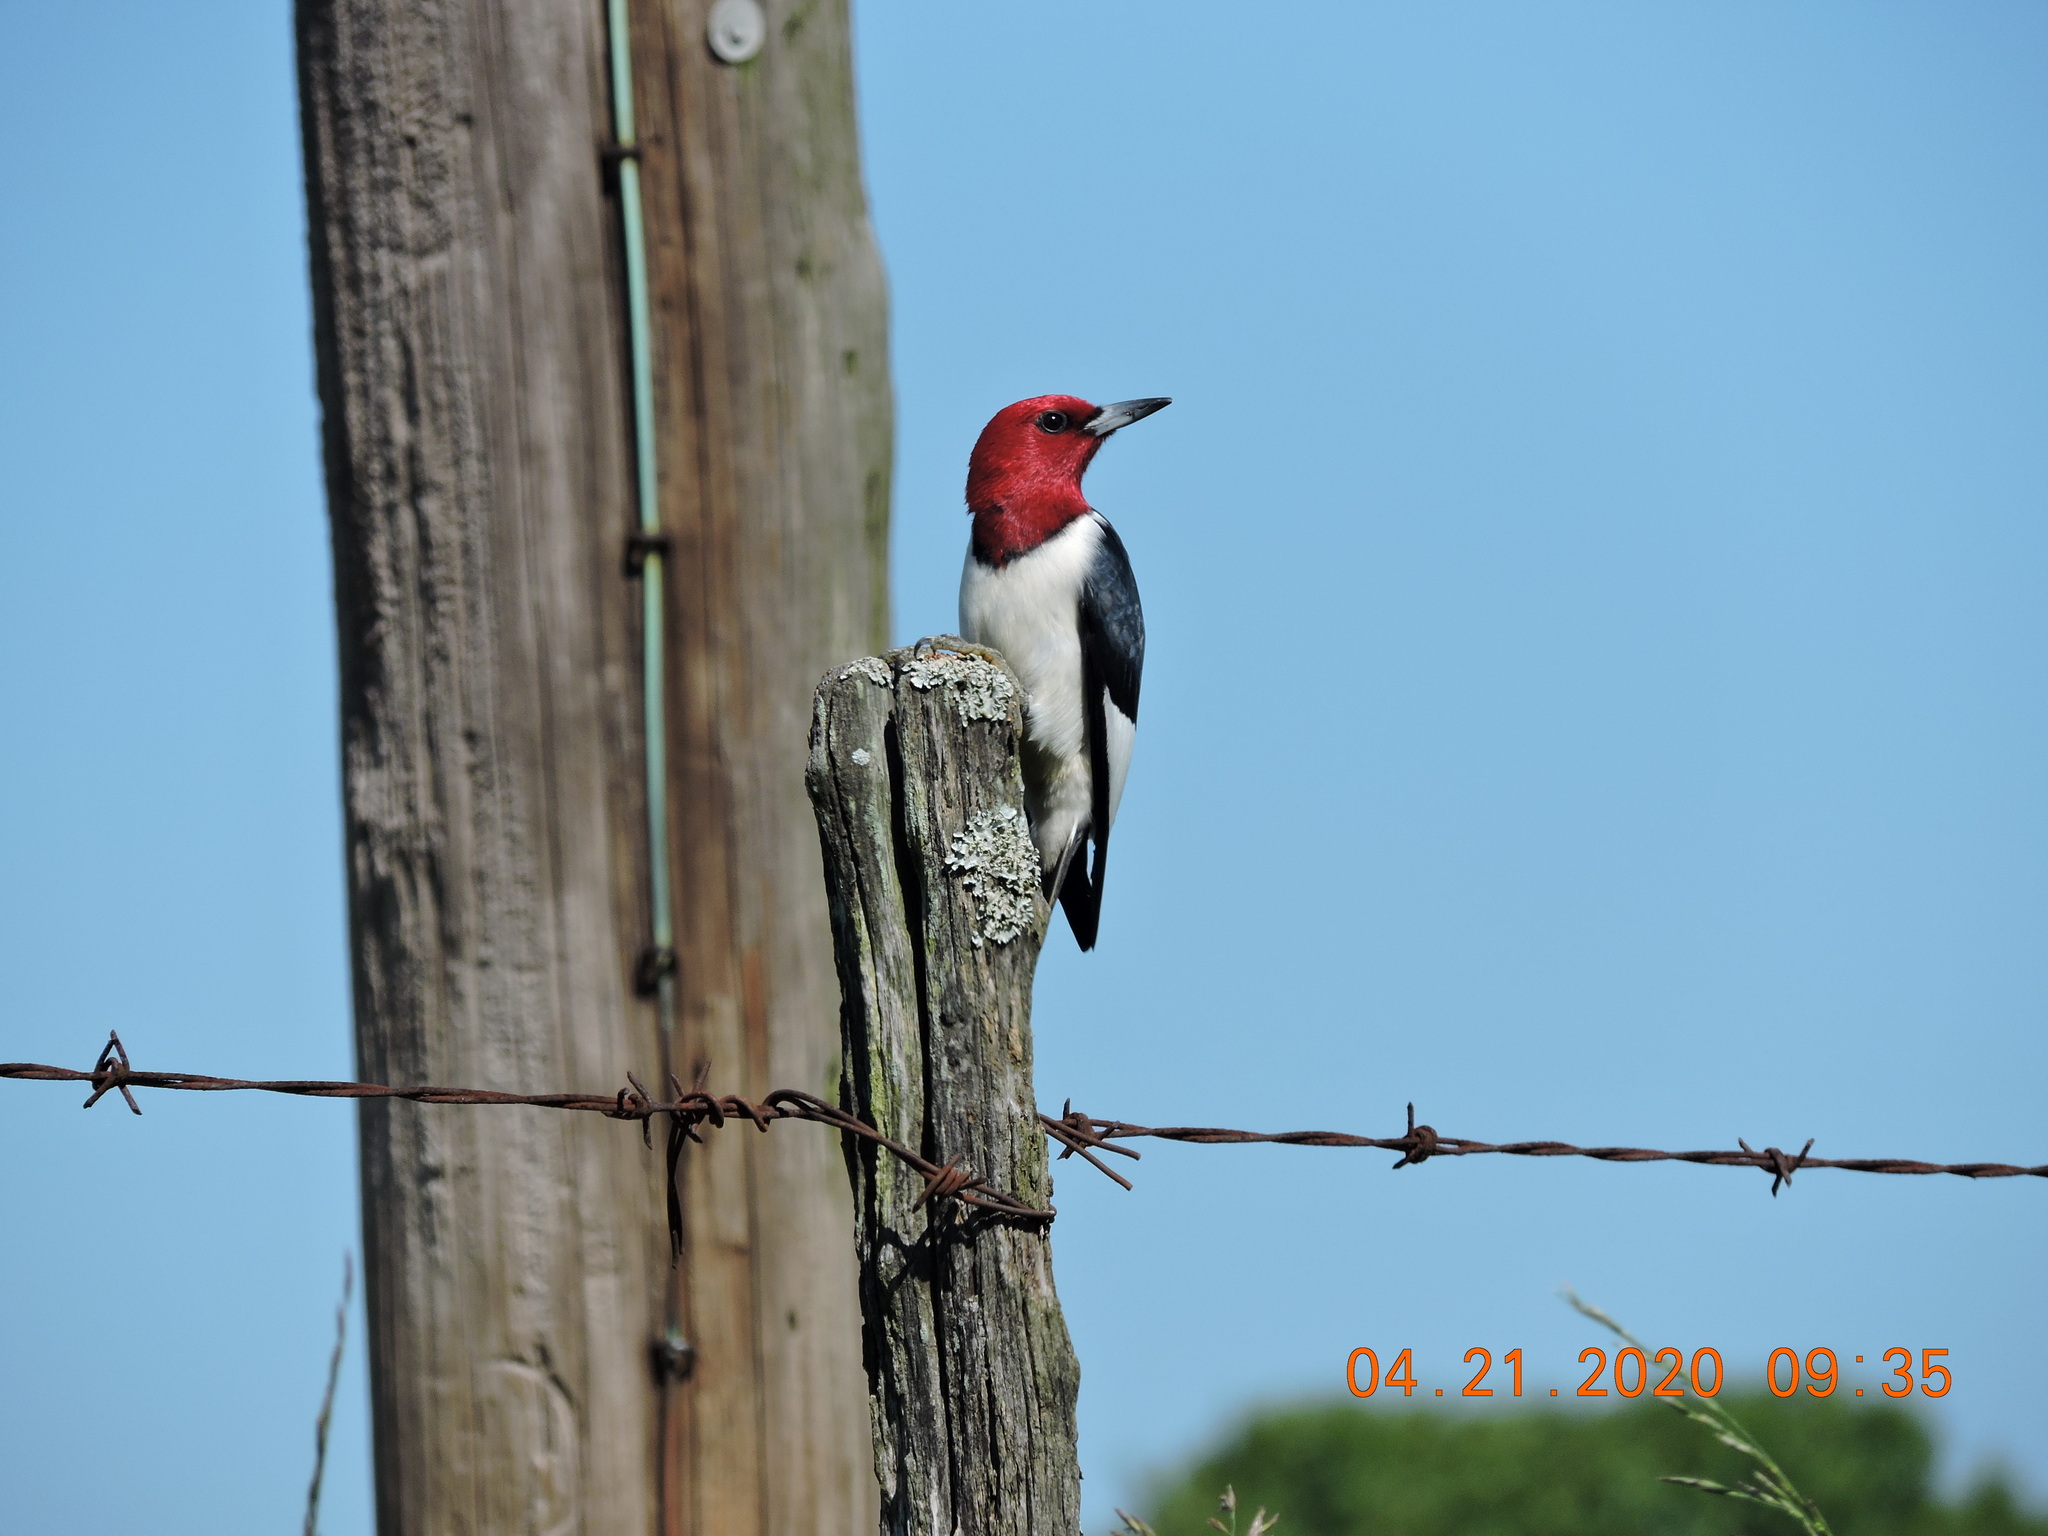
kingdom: Animalia
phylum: Chordata
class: Aves
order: Piciformes
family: Picidae
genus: Melanerpes
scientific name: Melanerpes erythrocephalus
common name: Red-headed woodpecker
